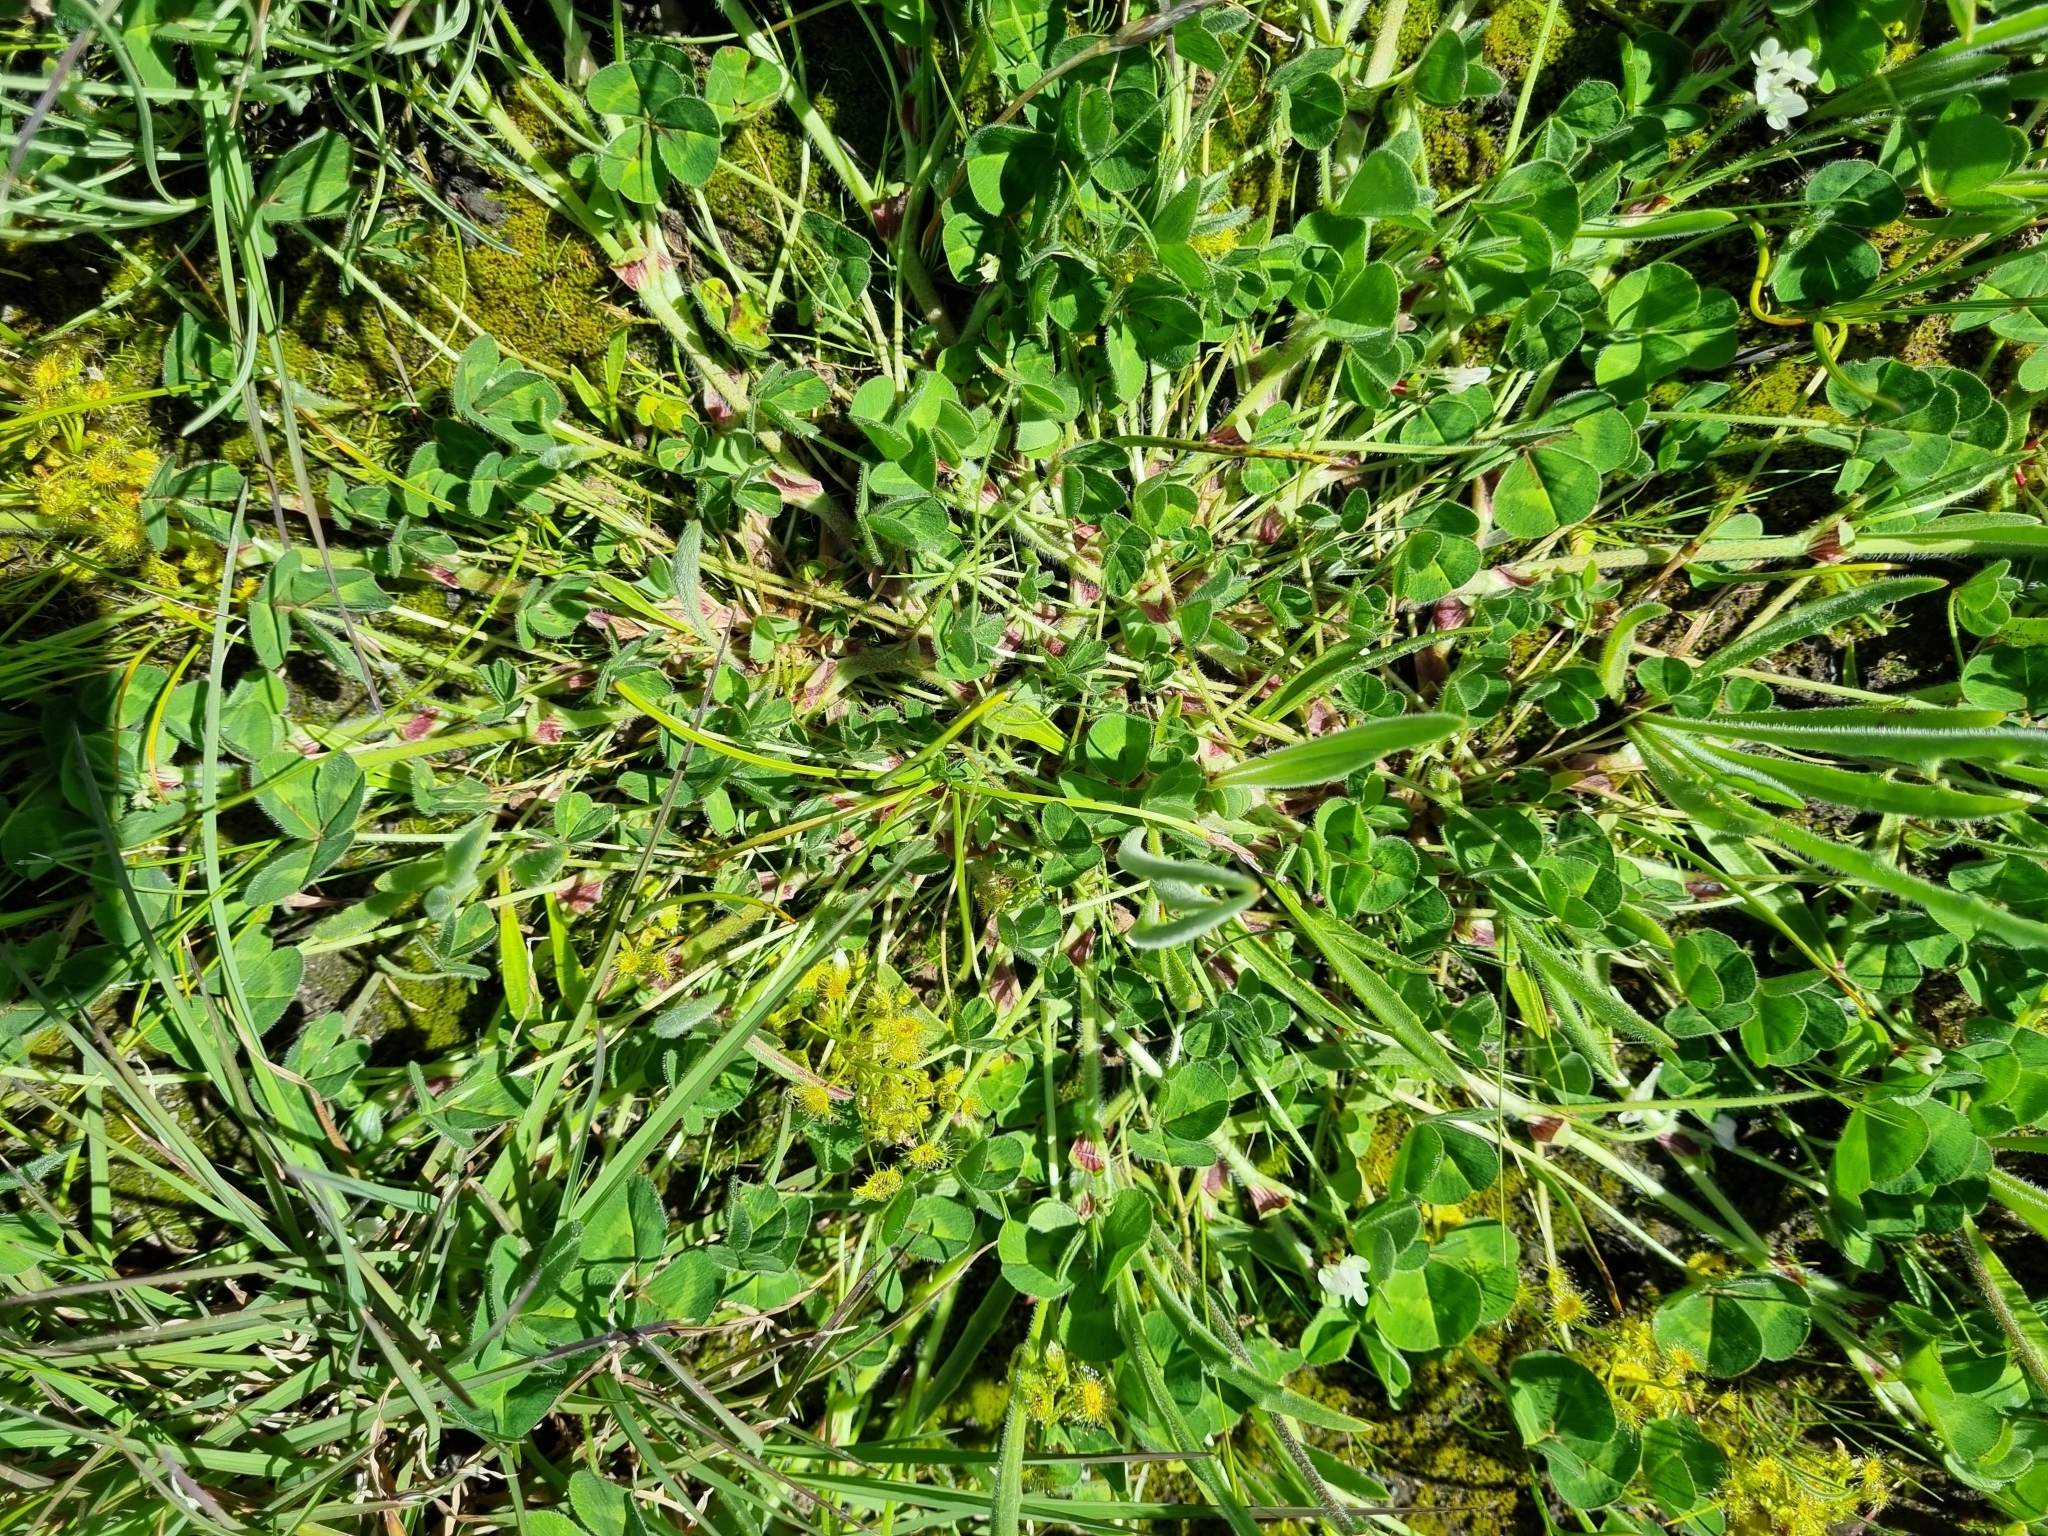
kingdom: Plantae
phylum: Tracheophyta
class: Magnoliopsida
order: Fabales
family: Fabaceae
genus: Trifolium
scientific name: Trifolium subterraneum
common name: Subterranean clover
